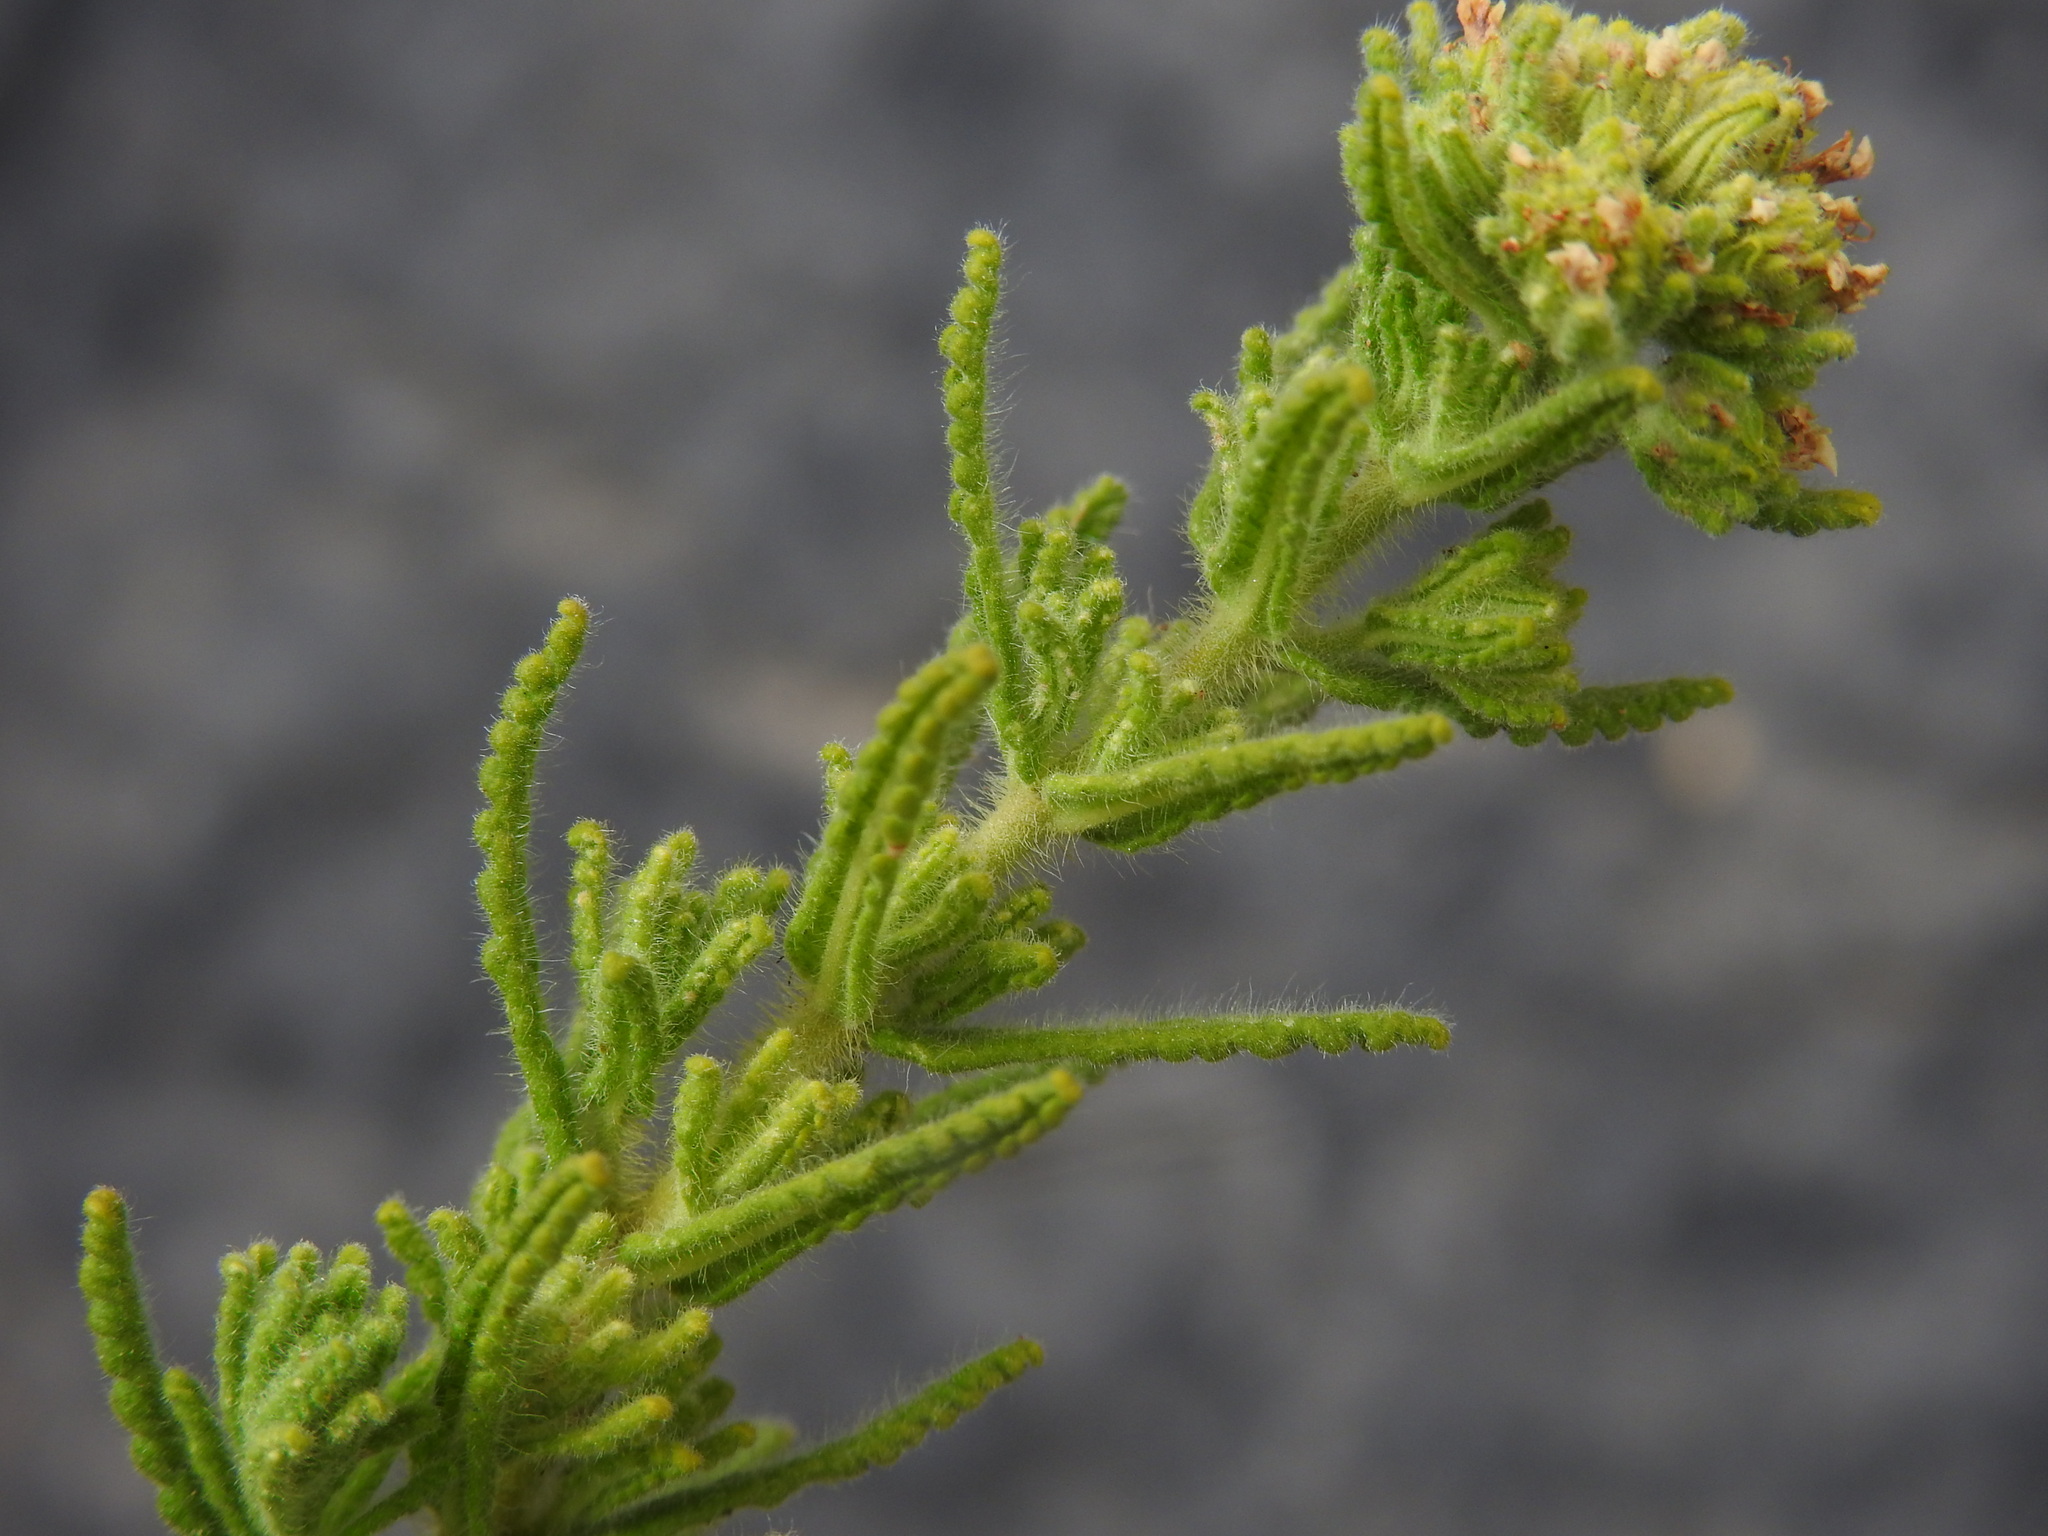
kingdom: Plantae
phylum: Tracheophyta
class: Magnoliopsida
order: Lamiales
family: Lamiaceae
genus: Teucrium
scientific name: Teucrium haenseleri
